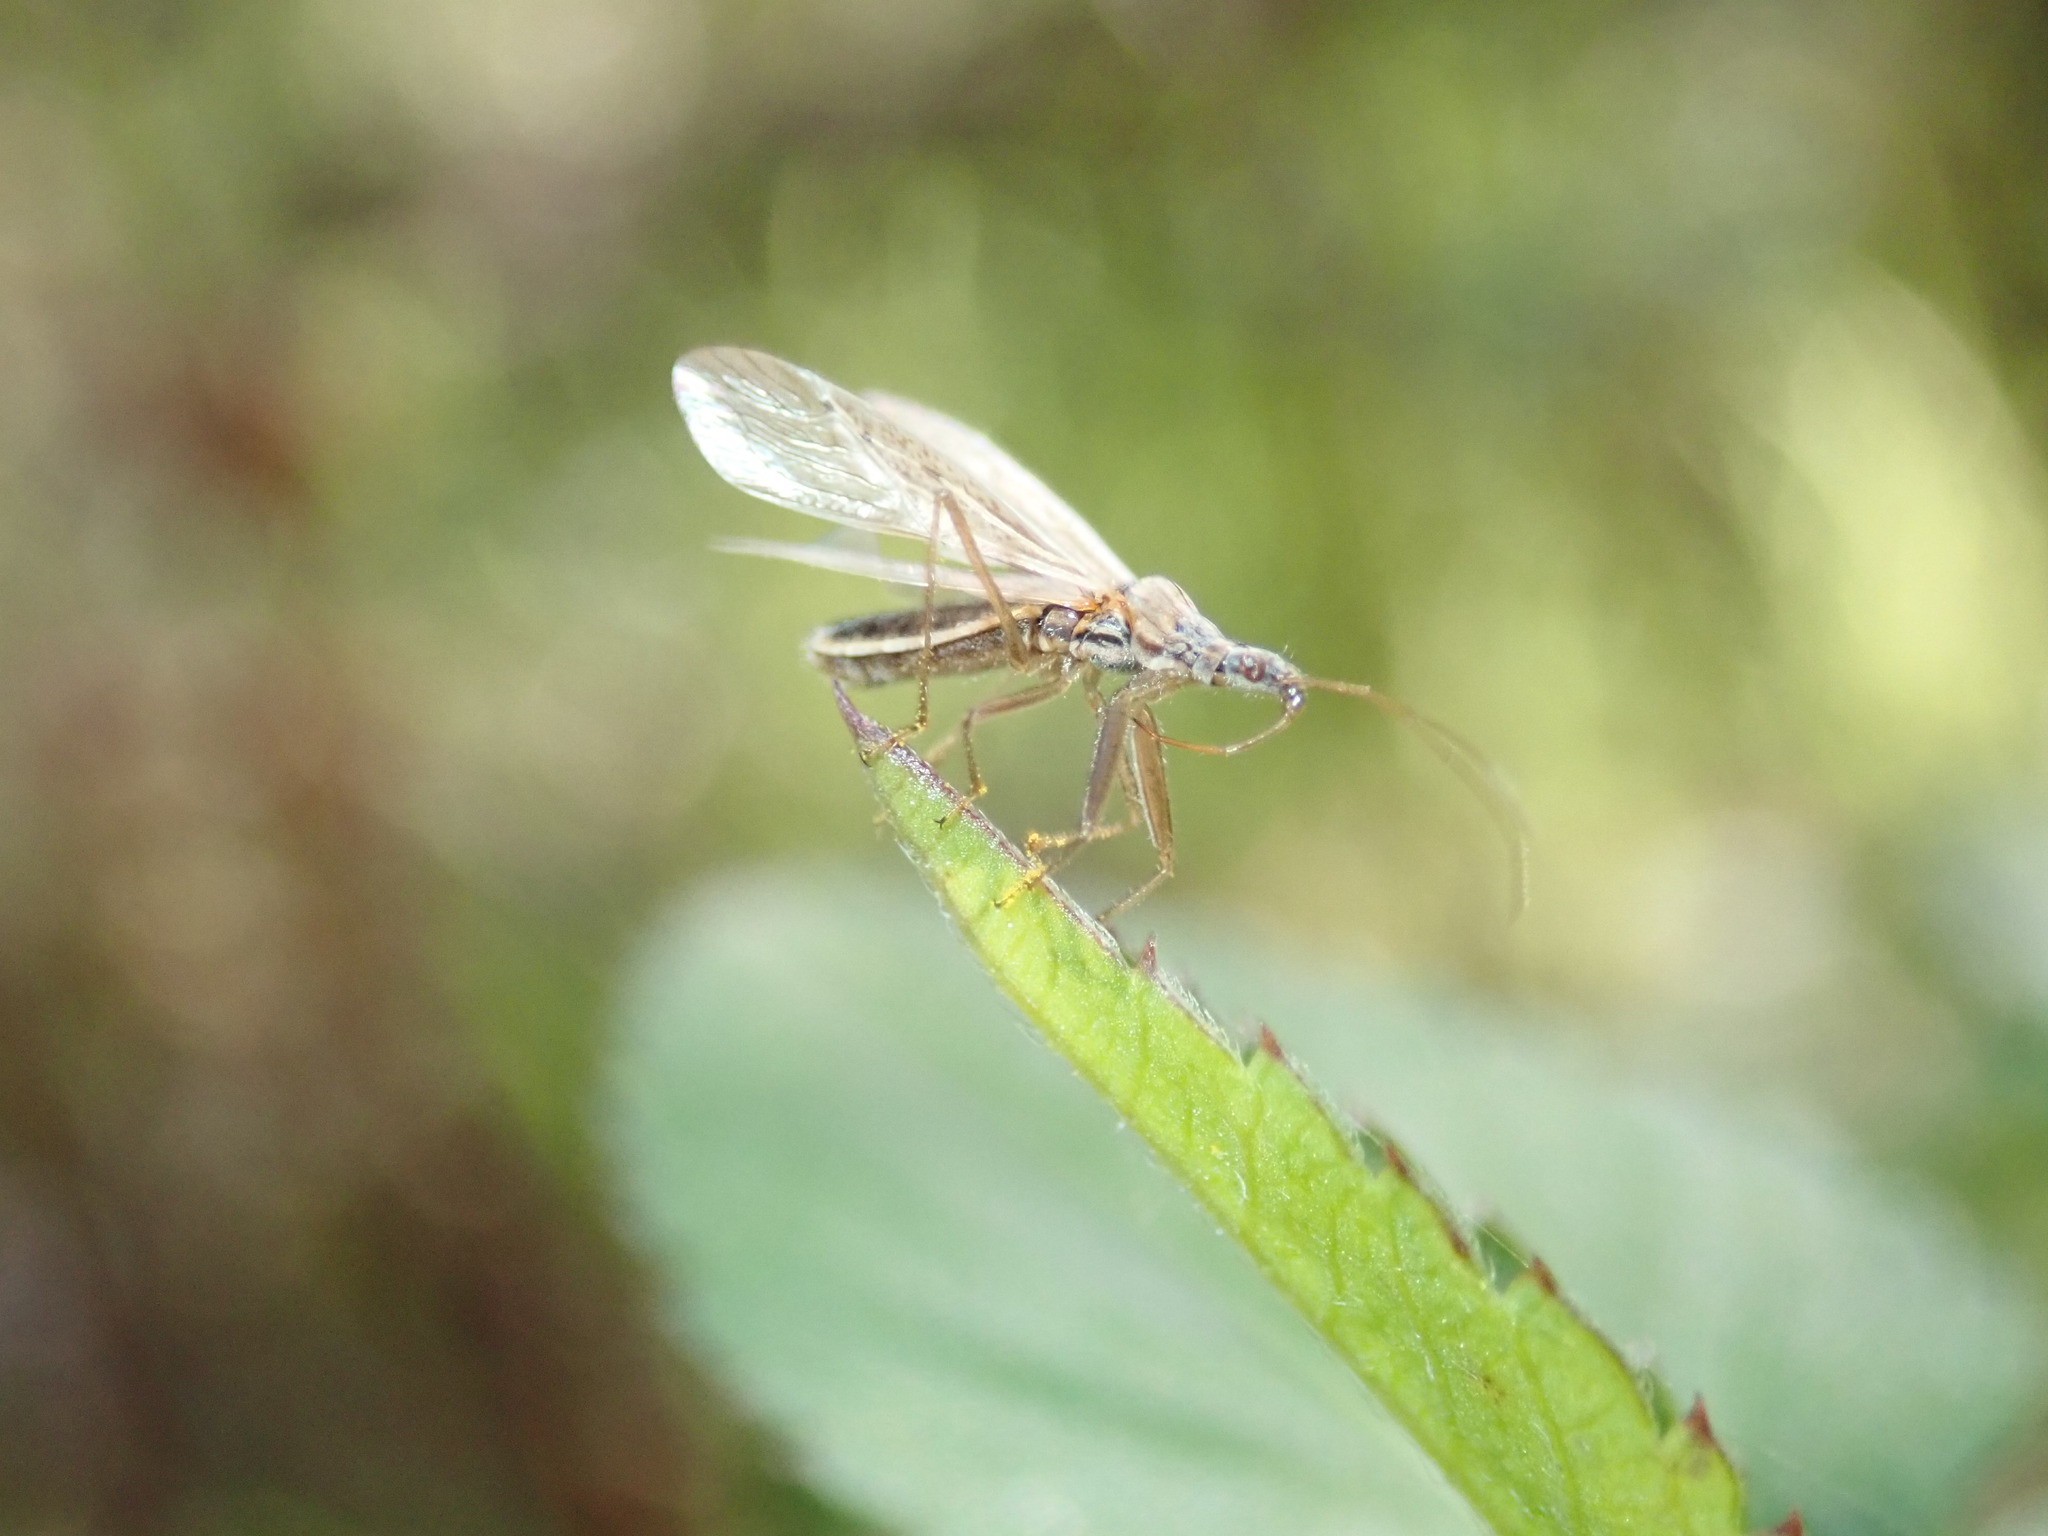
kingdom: Animalia
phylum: Arthropoda
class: Insecta
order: Hemiptera
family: Nabidae
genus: Nabis
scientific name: Nabis kinbergii
